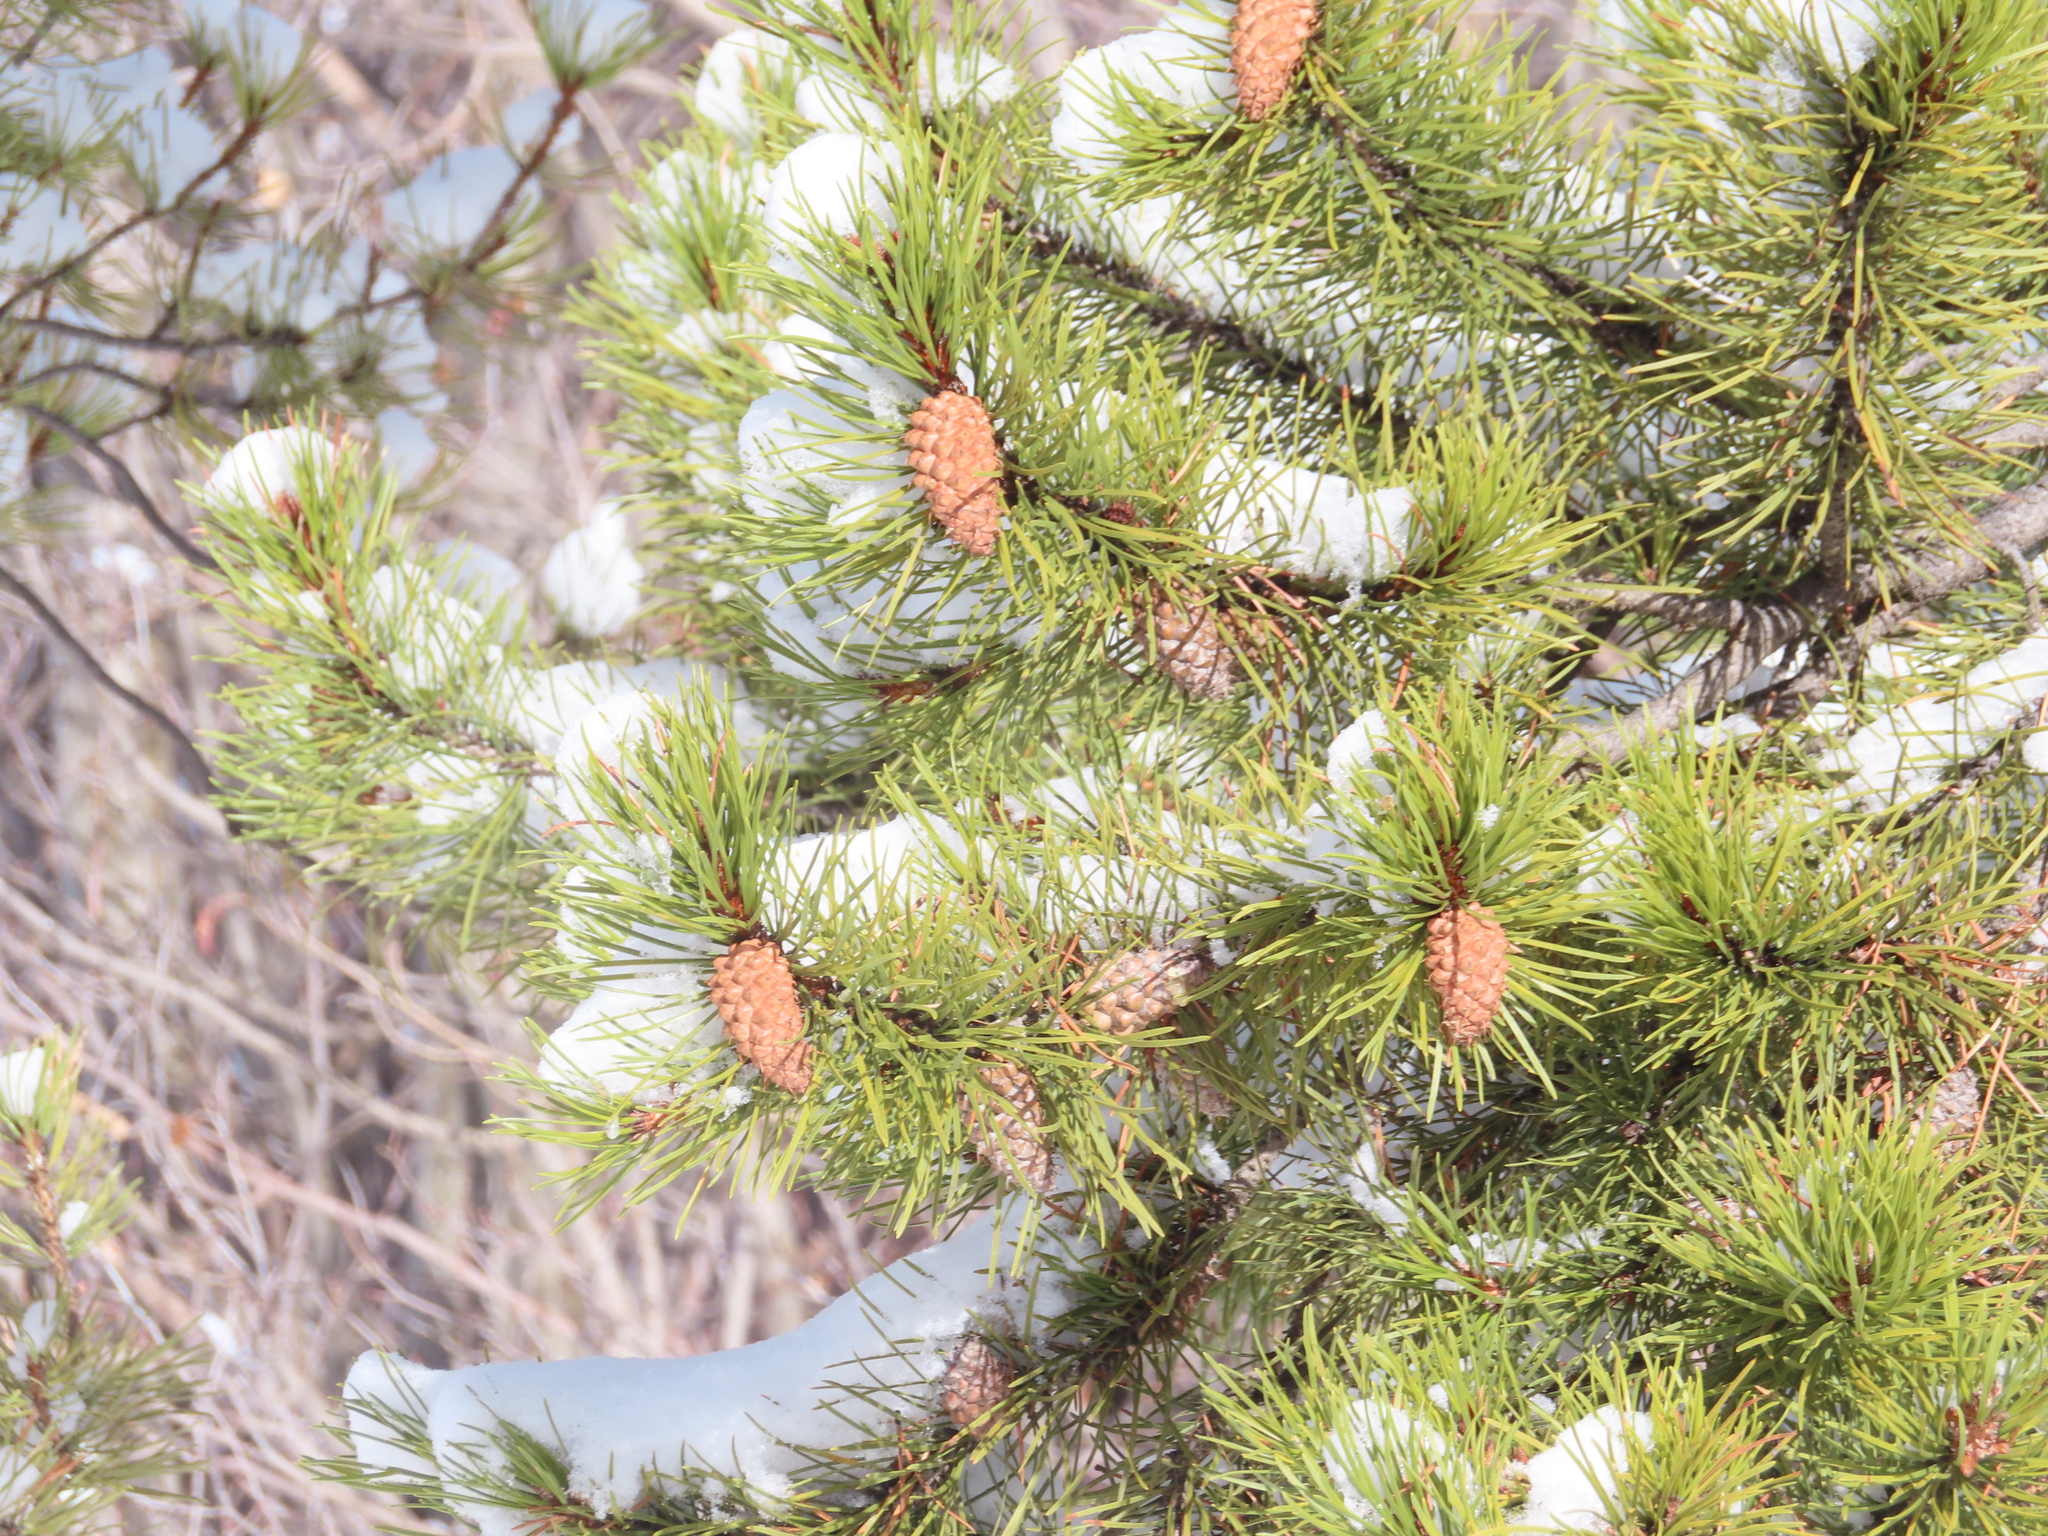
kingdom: Plantae
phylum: Tracheophyta
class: Pinopsida
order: Pinales
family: Pinaceae
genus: Pinus
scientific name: Pinus contorta
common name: Lodgepole pine
